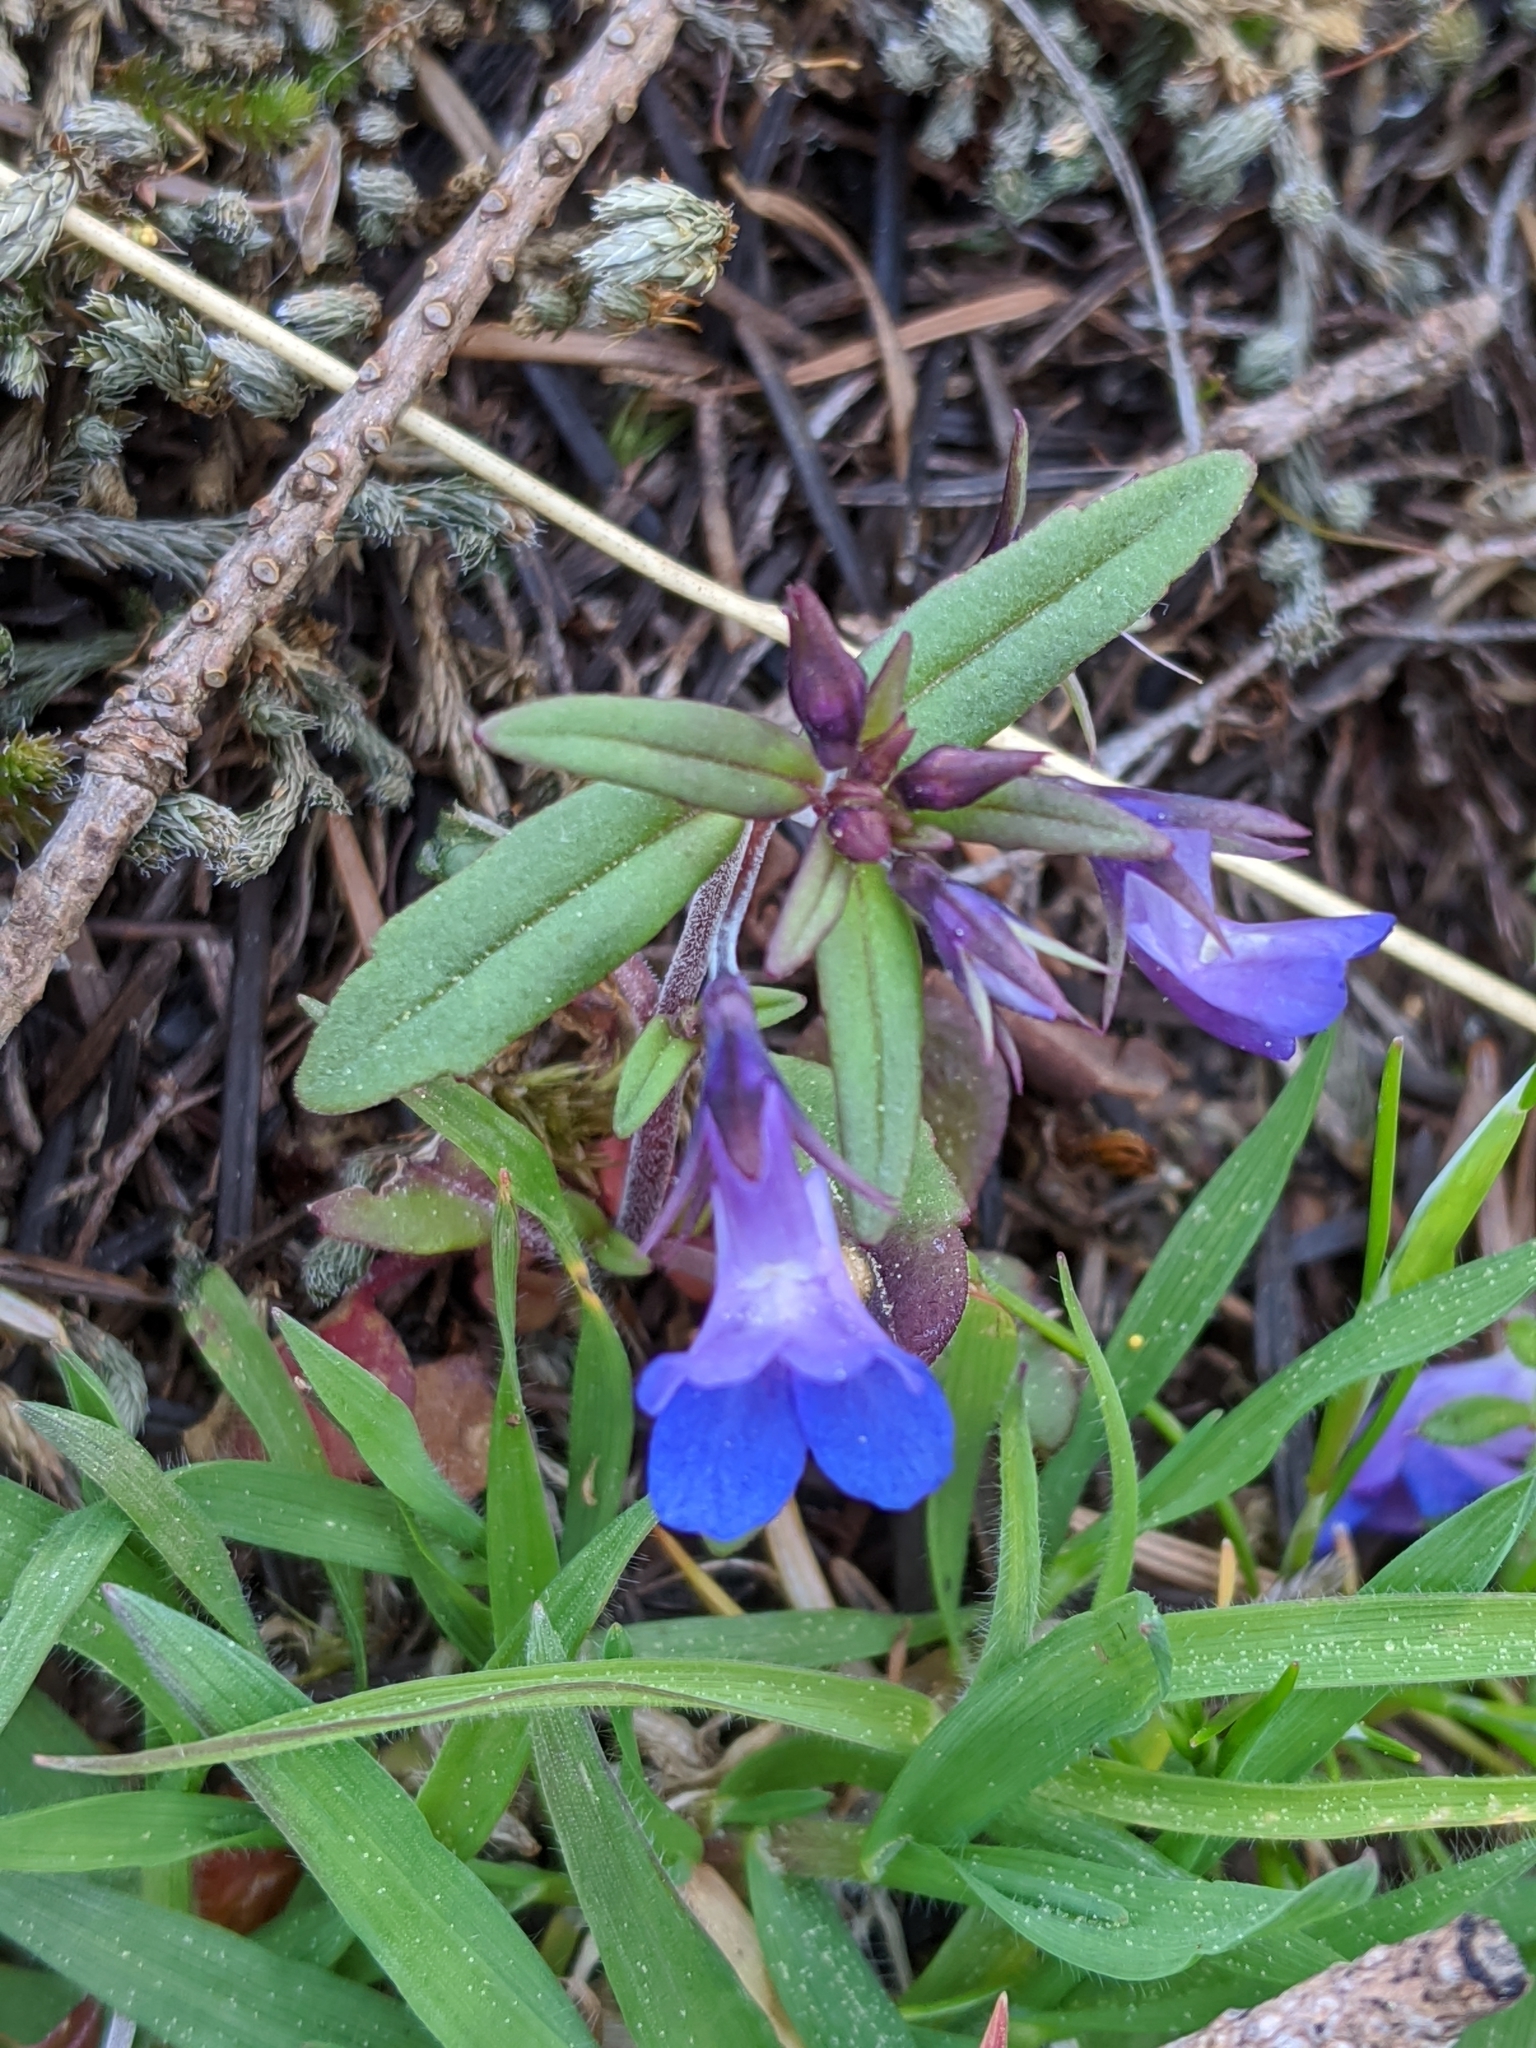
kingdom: Plantae
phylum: Tracheophyta
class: Magnoliopsida
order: Lamiales
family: Plantaginaceae
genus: Collinsia
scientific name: Collinsia grandiflora
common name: Large-flower blue-eyed-mary
